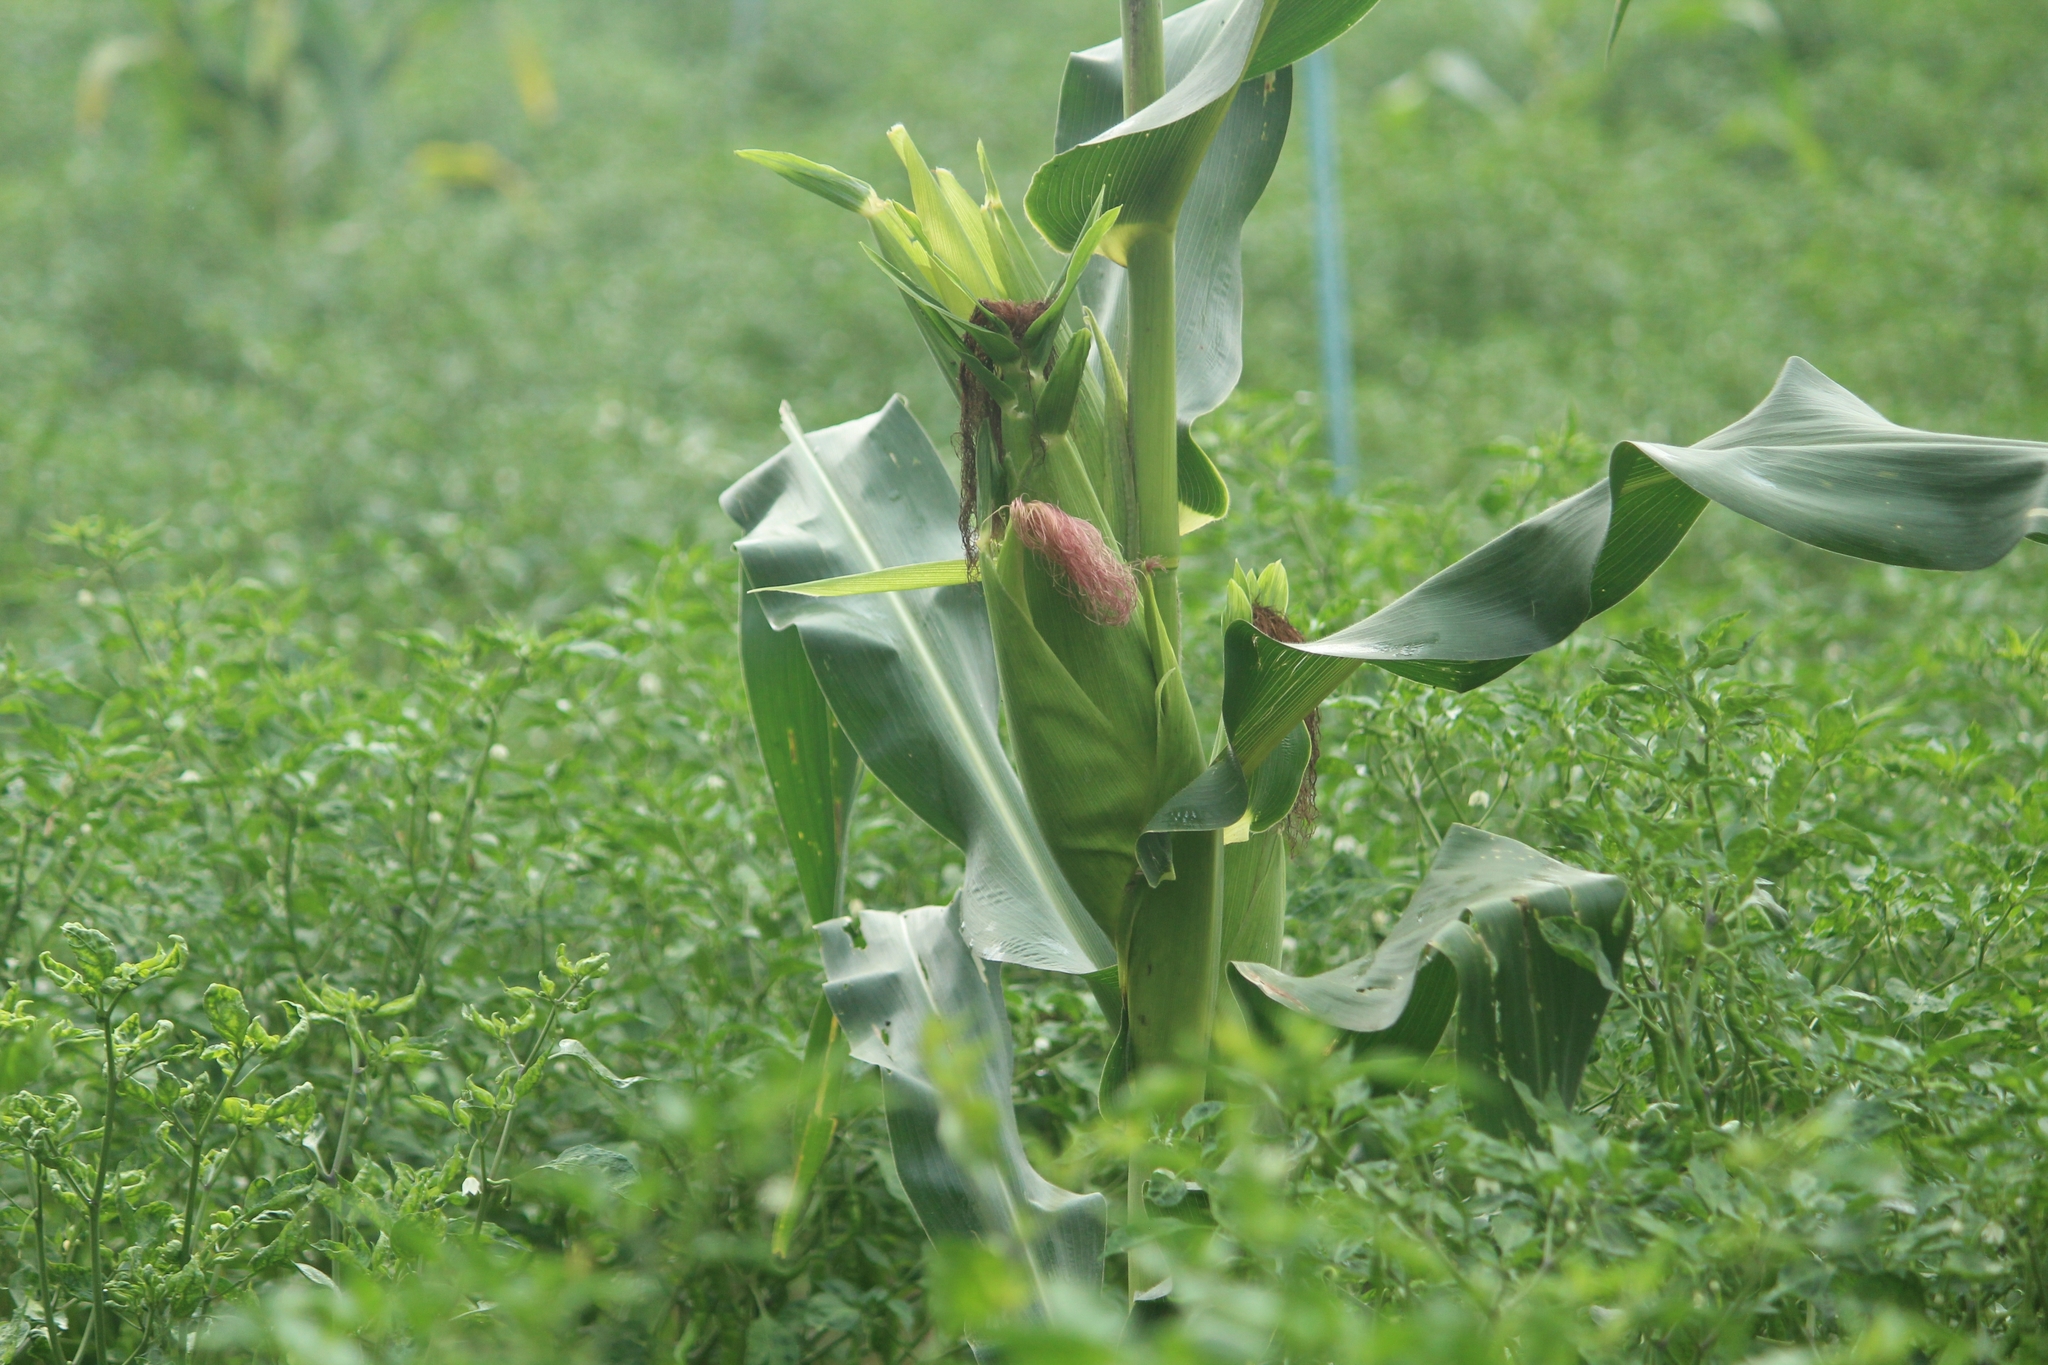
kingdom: Plantae
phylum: Tracheophyta
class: Liliopsida
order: Poales
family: Poaceae
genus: Zea
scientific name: Zea mays
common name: Maize
